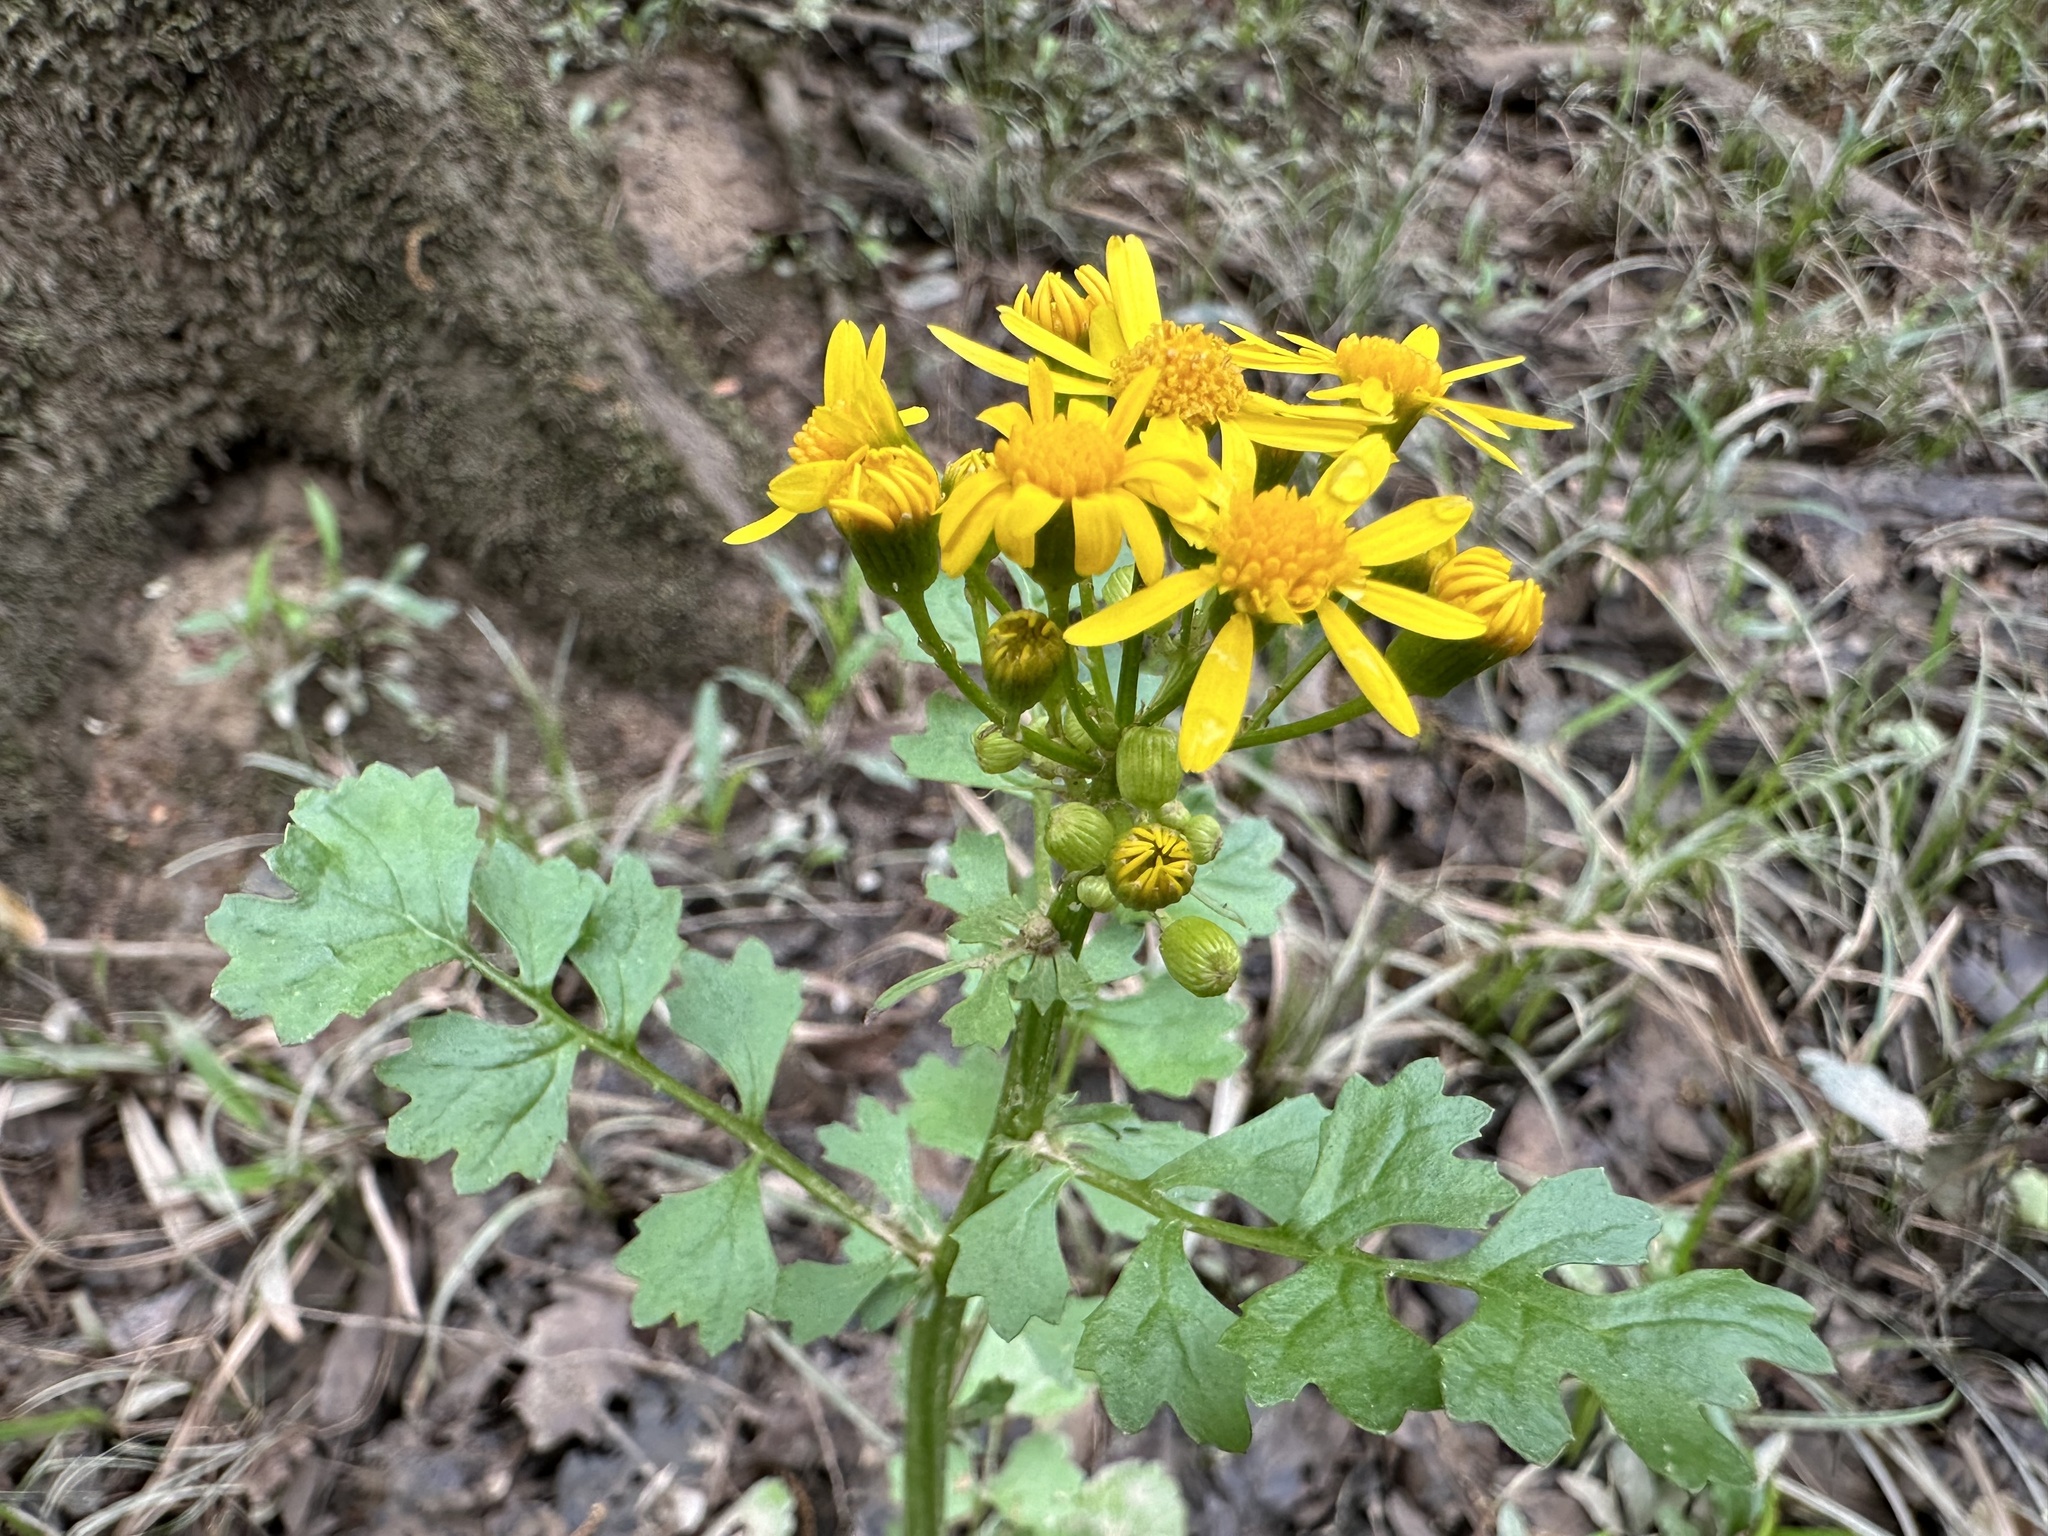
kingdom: Plantae
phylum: Tracheophyta
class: Magnoliopsida
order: Asterales
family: Asteraceae
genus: Packera
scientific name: Packera glabella
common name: Butterweed
